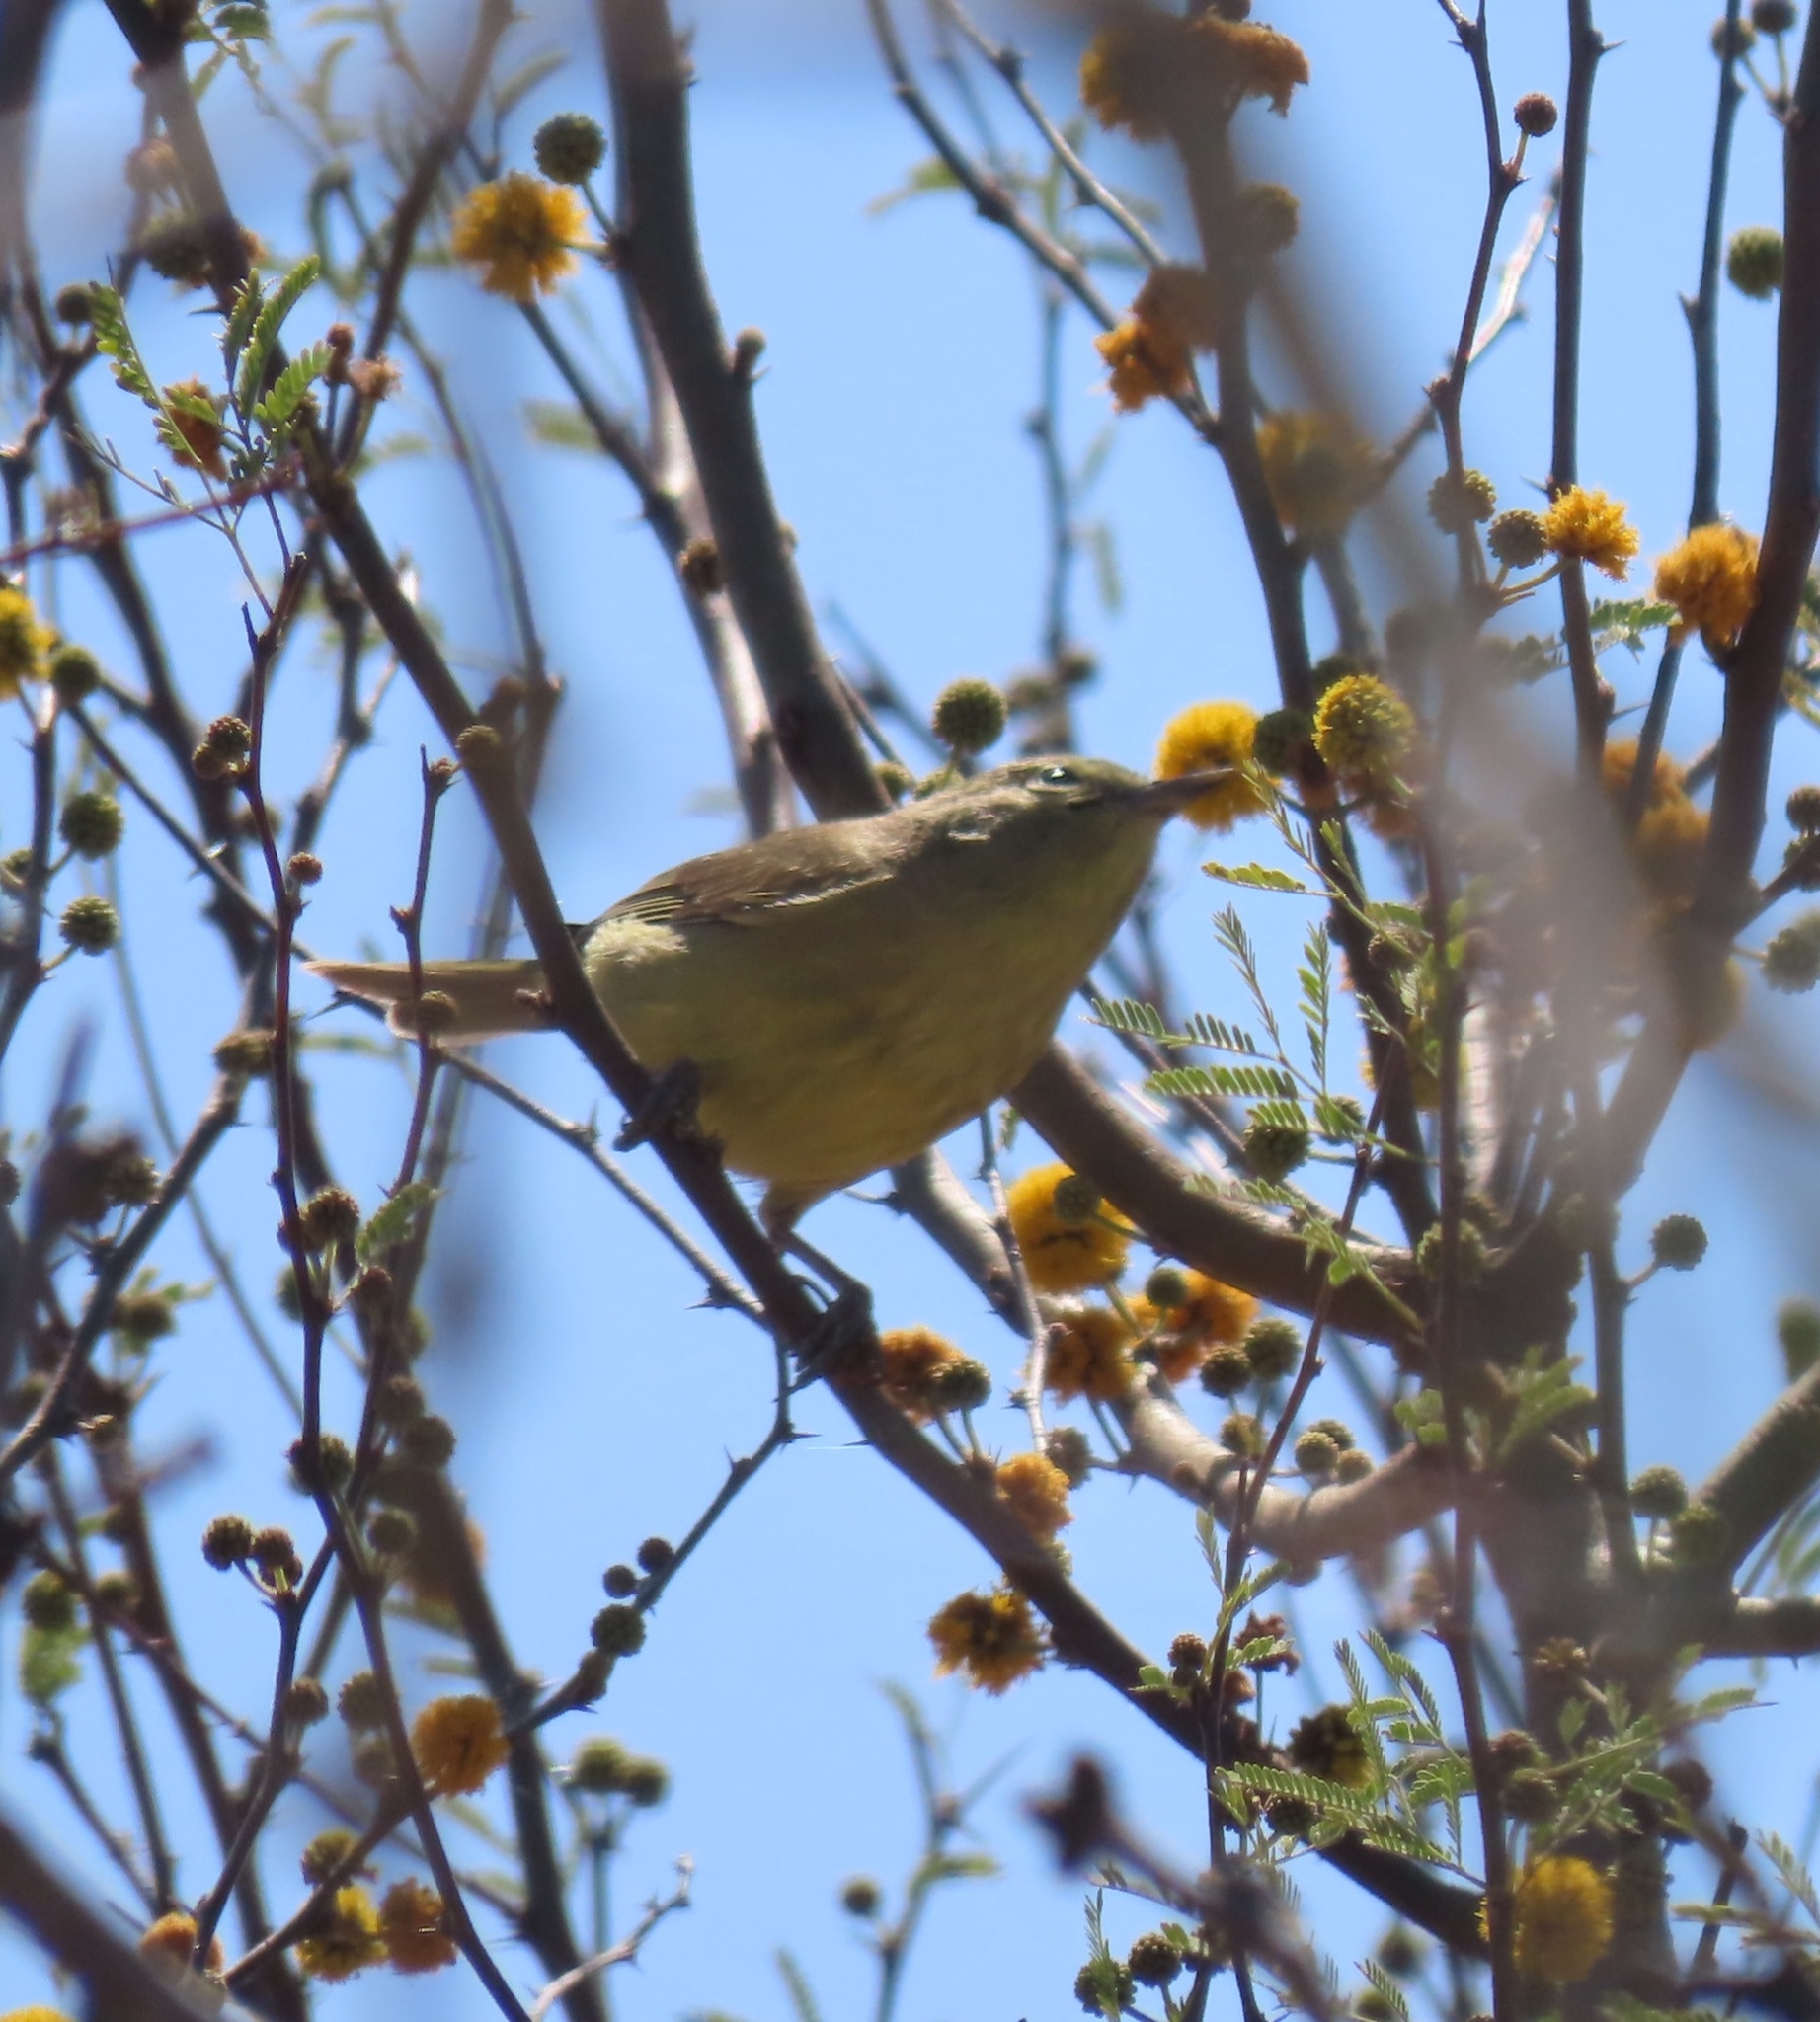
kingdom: Animalia
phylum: Chordata
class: Aves
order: Passeriformes
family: Parulidae
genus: Leiothlypis
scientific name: Leiothlypis celata
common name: Orange-crowned warbler
